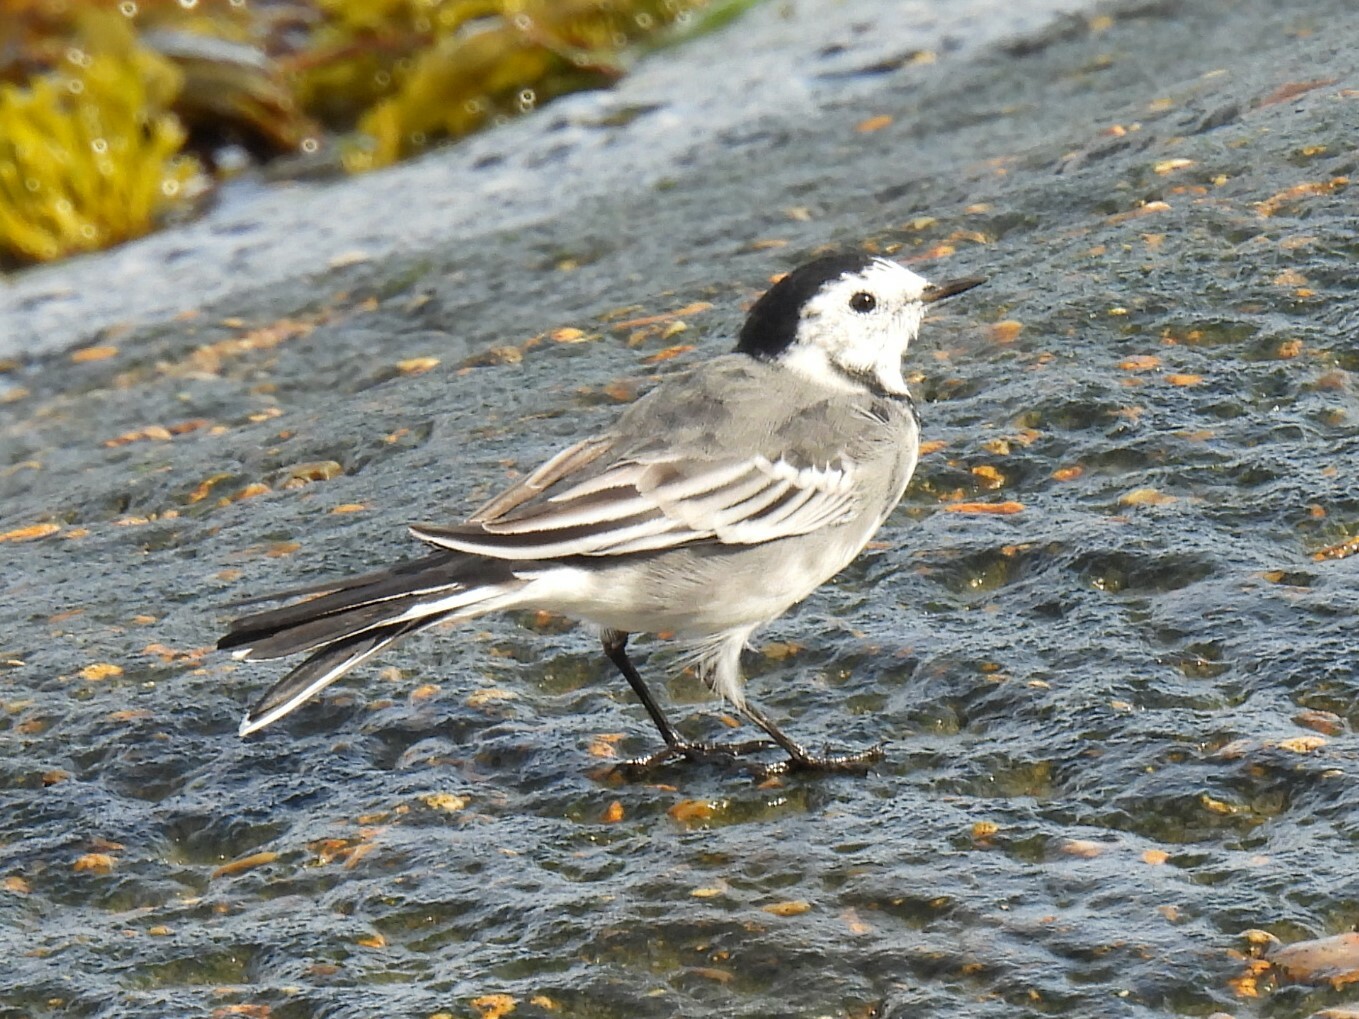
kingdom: Animalia
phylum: Chordata
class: Aves
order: Passeriformes
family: Motacillidae
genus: Motacilla
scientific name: Motacilla alba
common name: White wagtail
